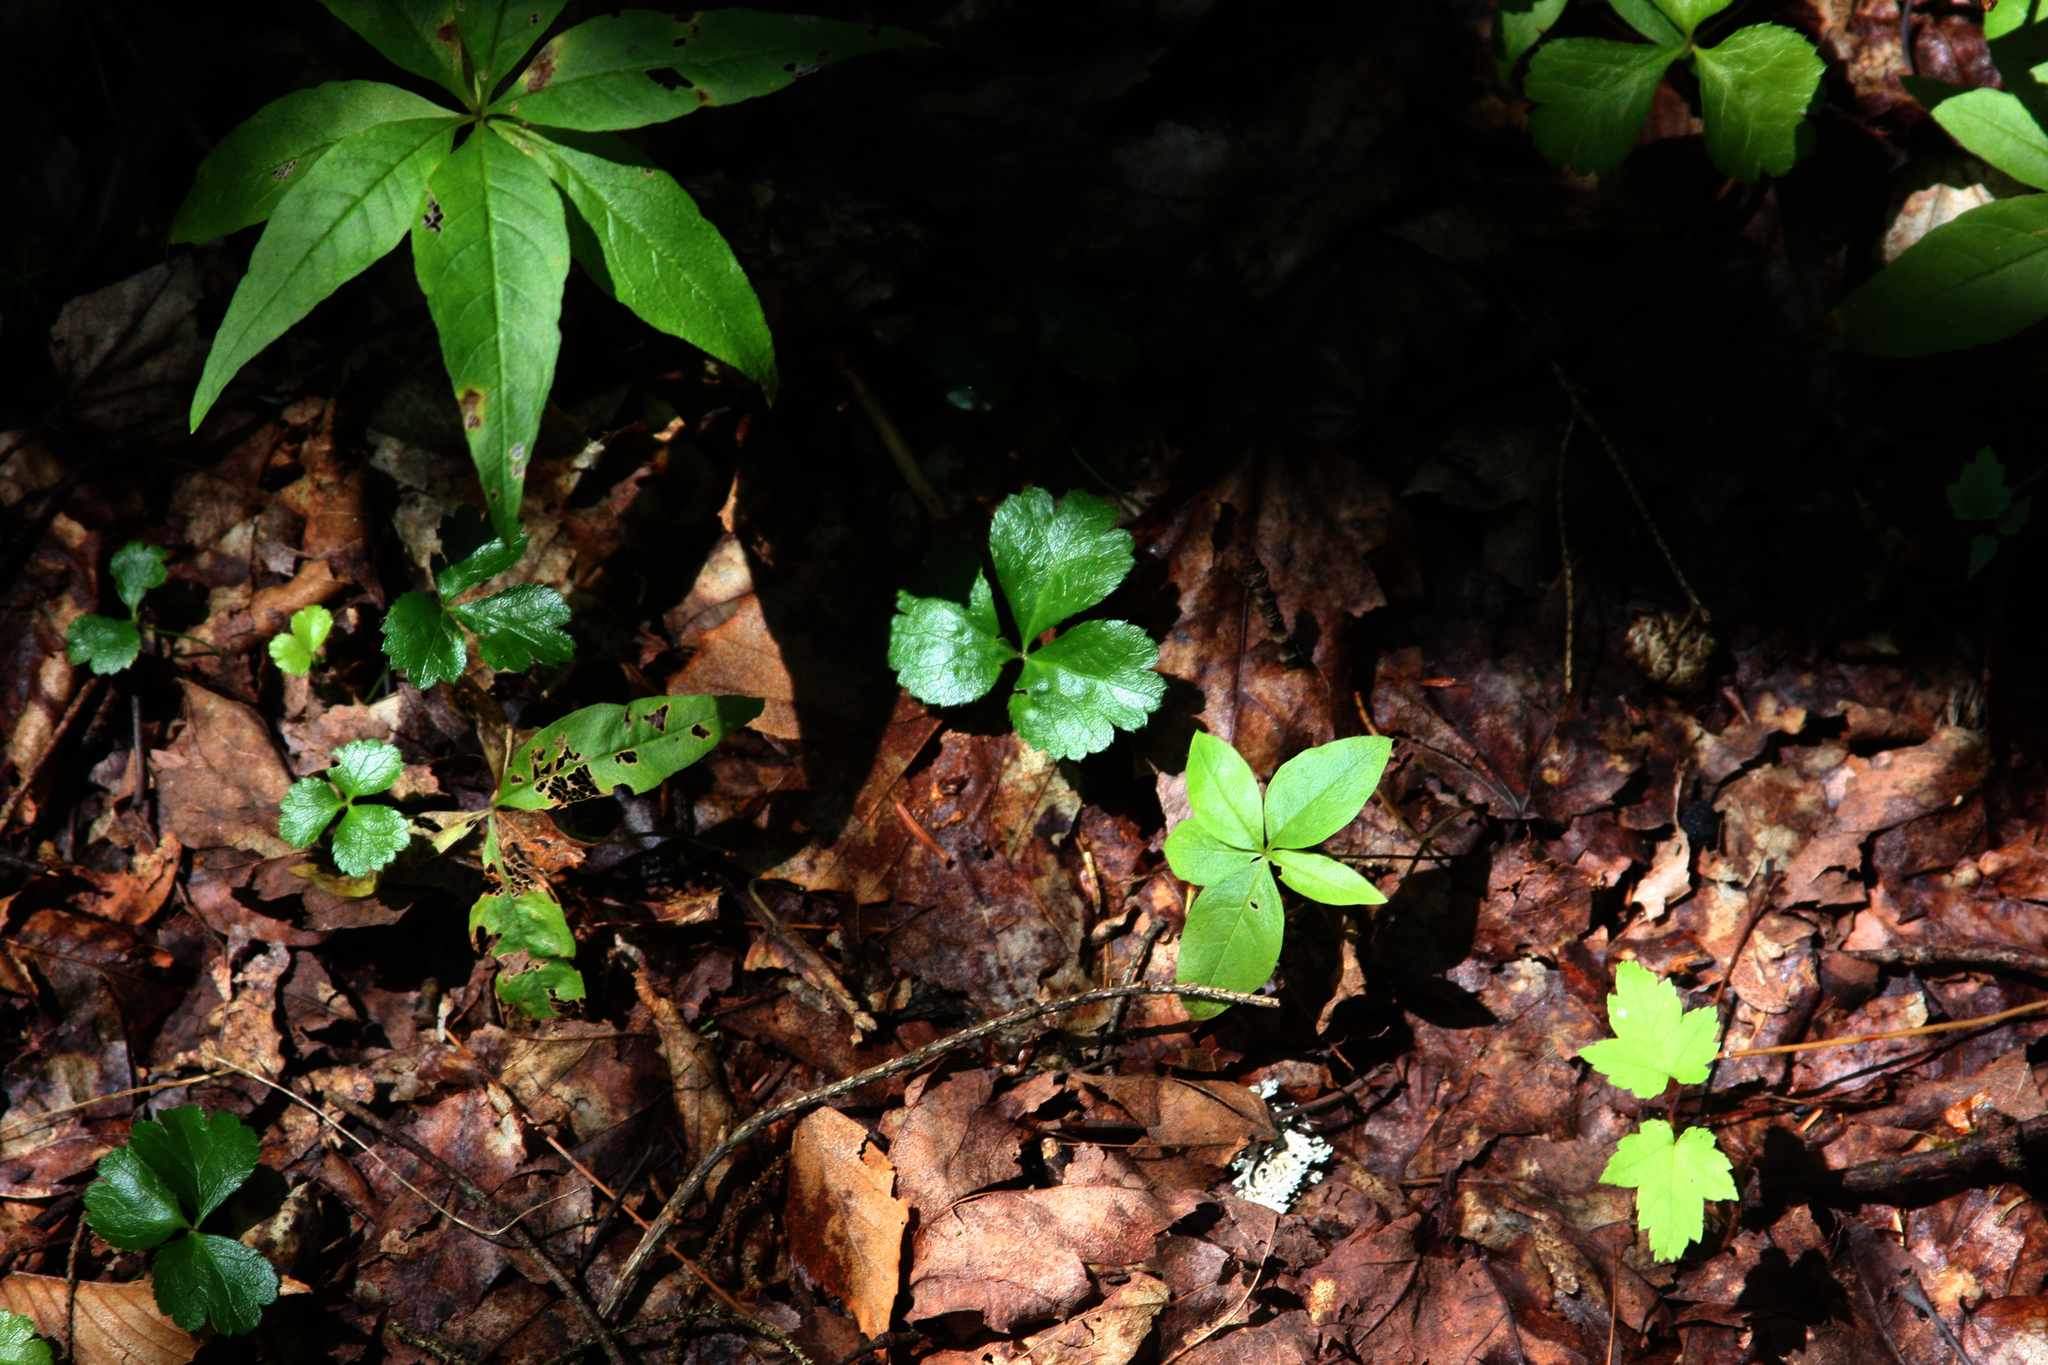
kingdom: Plantae
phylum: Tracheophyta
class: Magnoliopsida
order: Ranunculales
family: Ranunculaceae
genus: Coptis
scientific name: Coptis trifolia
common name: Canker-root
